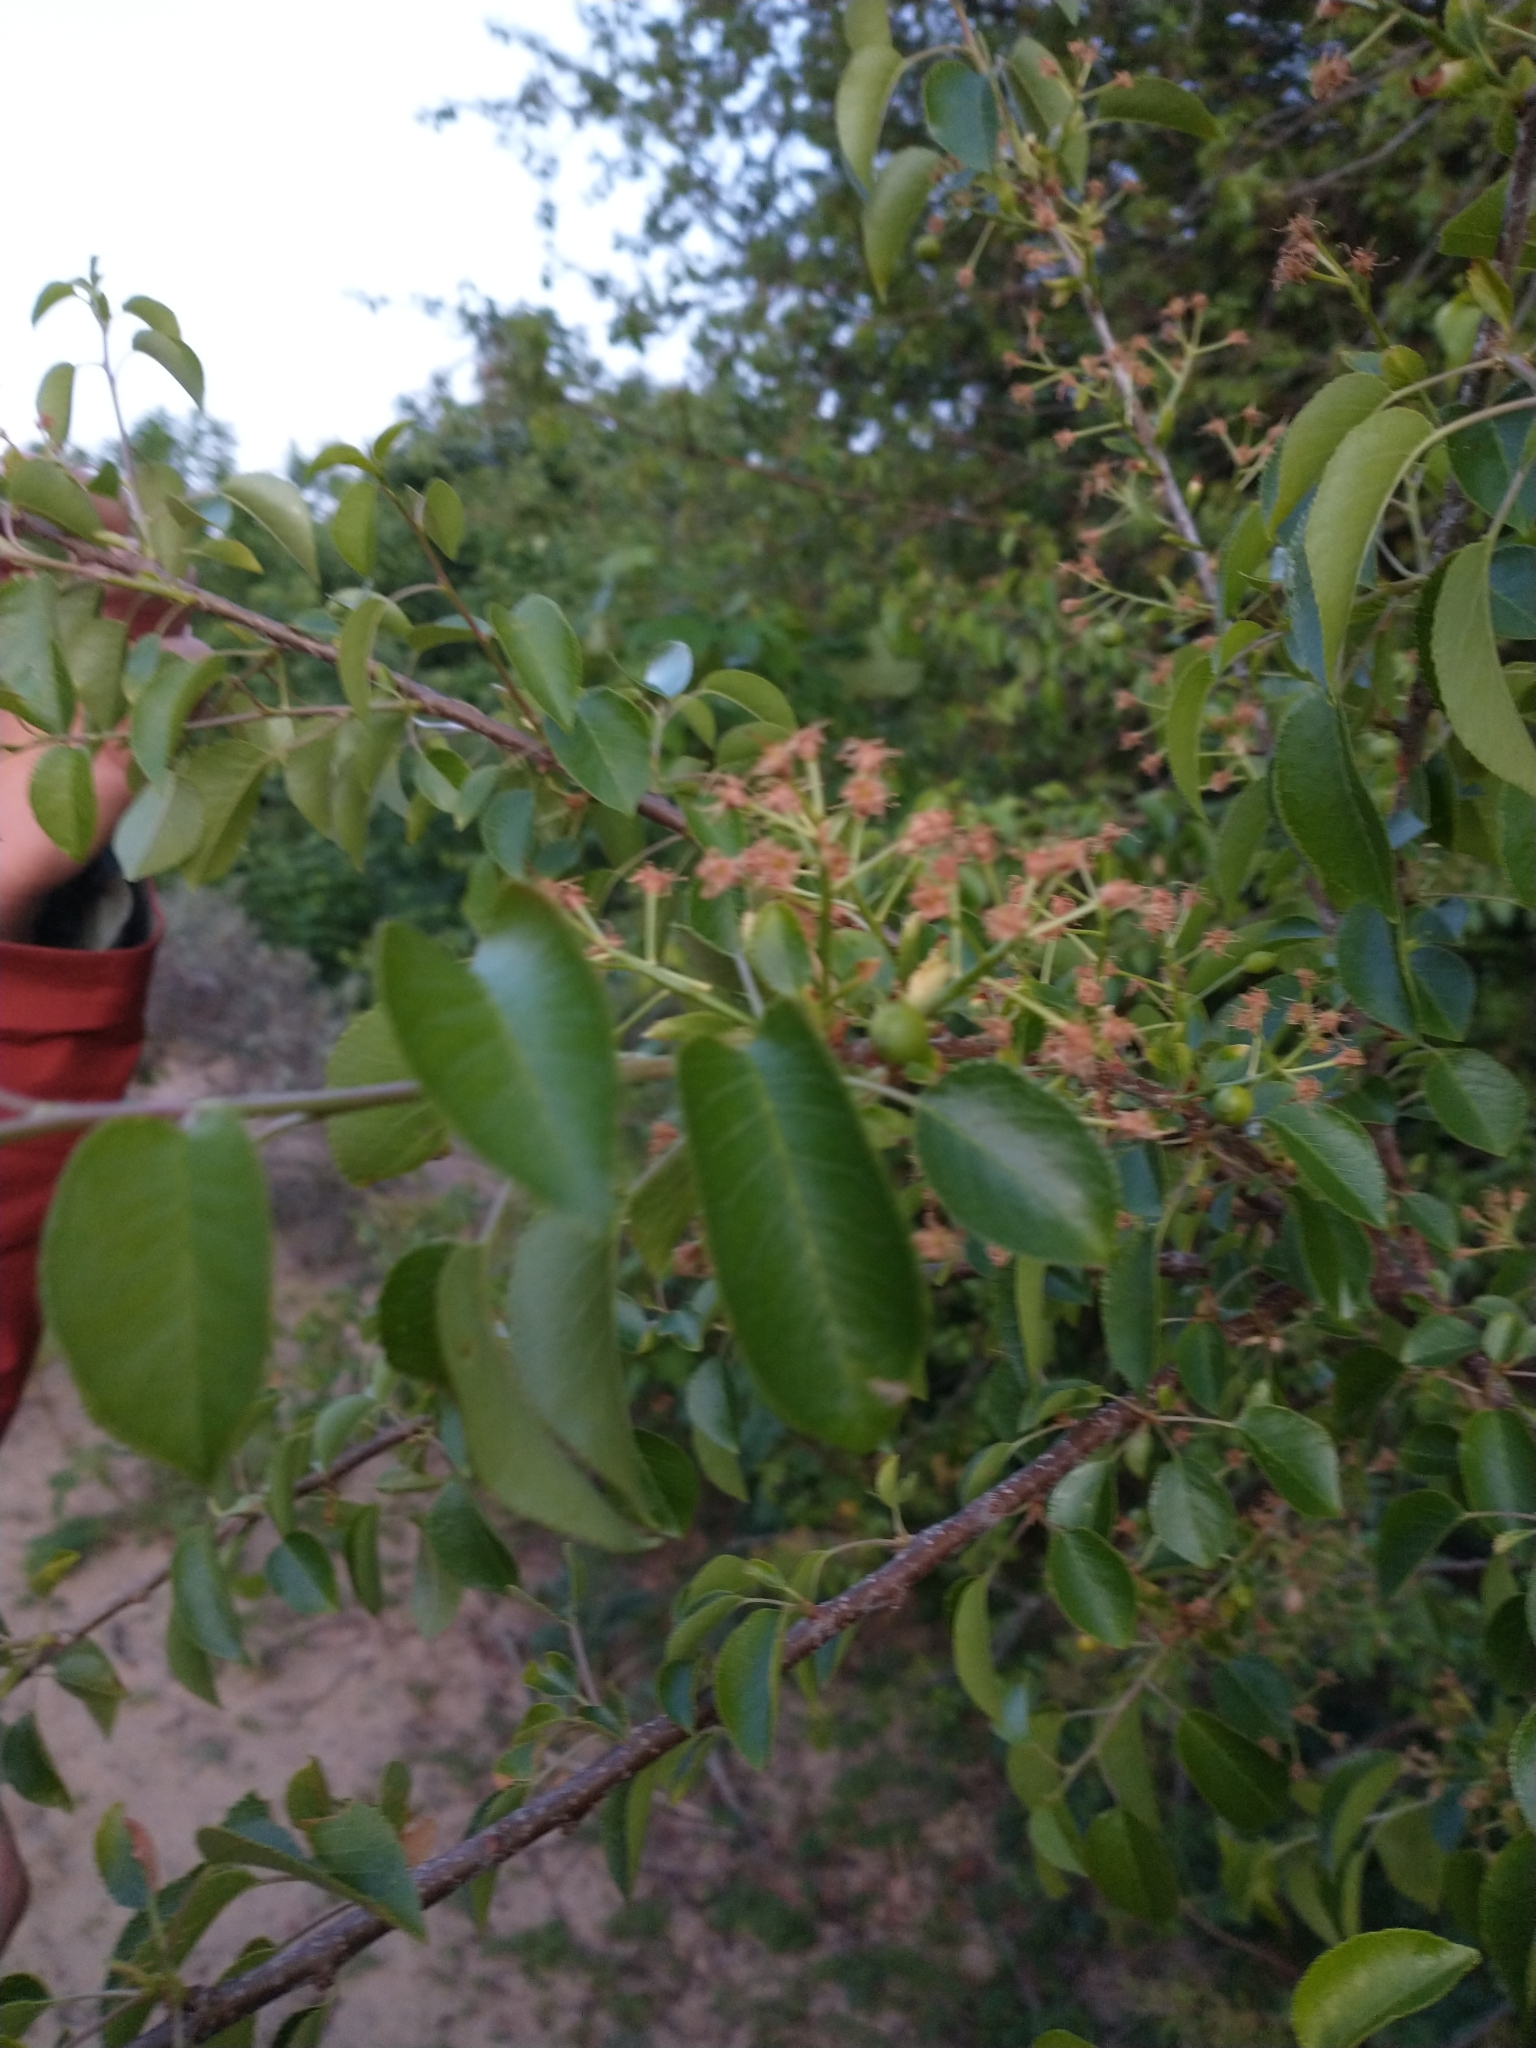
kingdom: Plantae
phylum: Tracheophyta
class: Magnoliopsida
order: Rosales
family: Rosaceae
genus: Prunus
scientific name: Prunus mahaleb
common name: Mahaleb cherry
